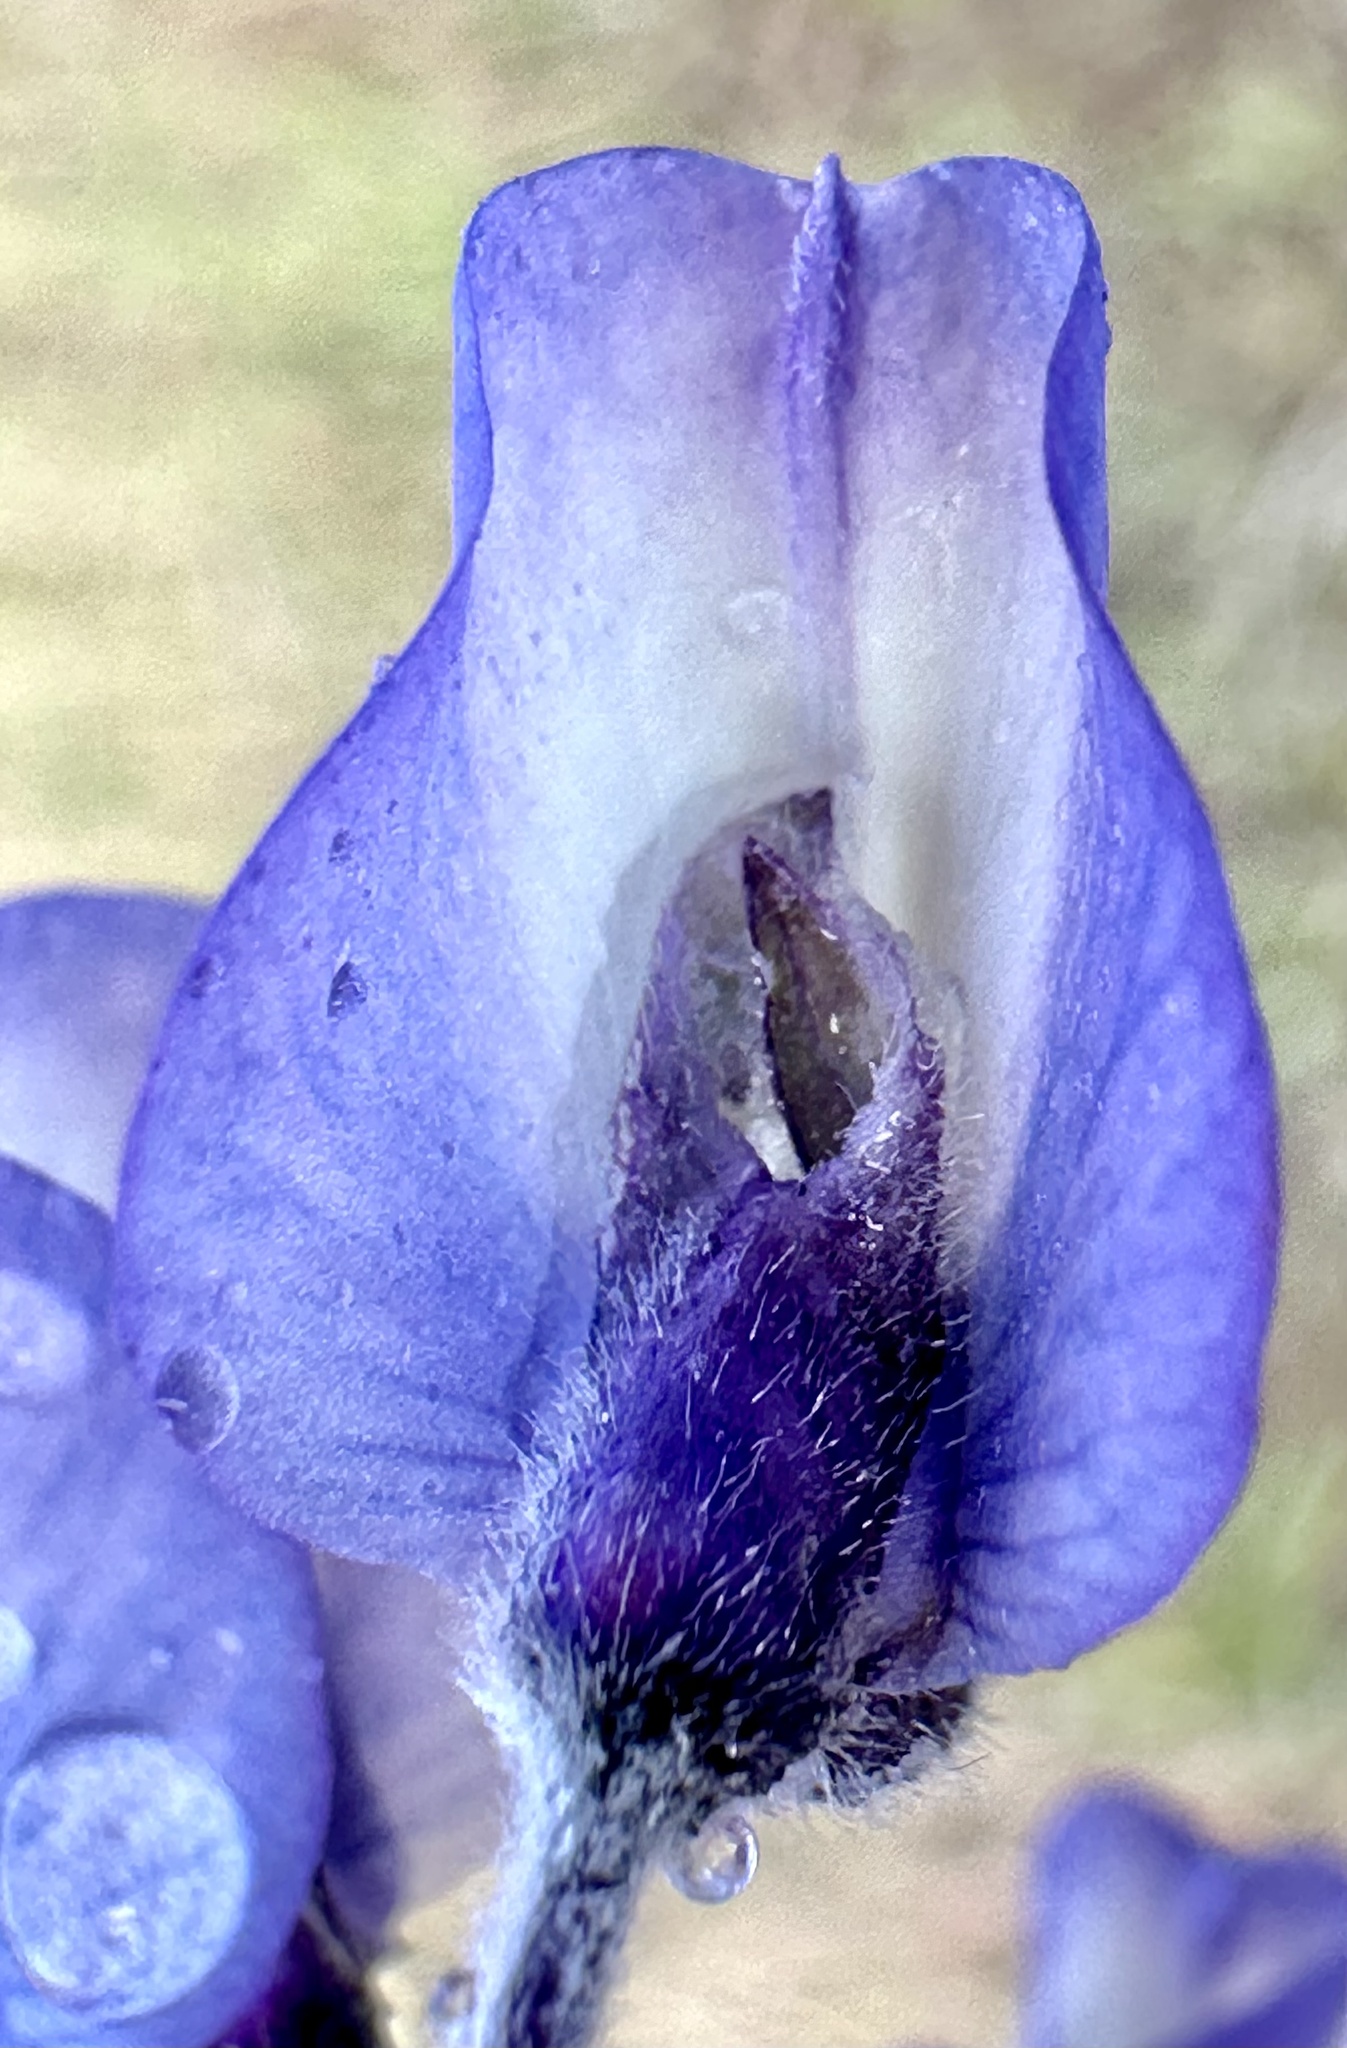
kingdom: Plantae
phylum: Tracheophyta
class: Magnoliopsida
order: Fabales
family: Fabaceae
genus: Lupinus
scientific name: Lupinus chamissonis
